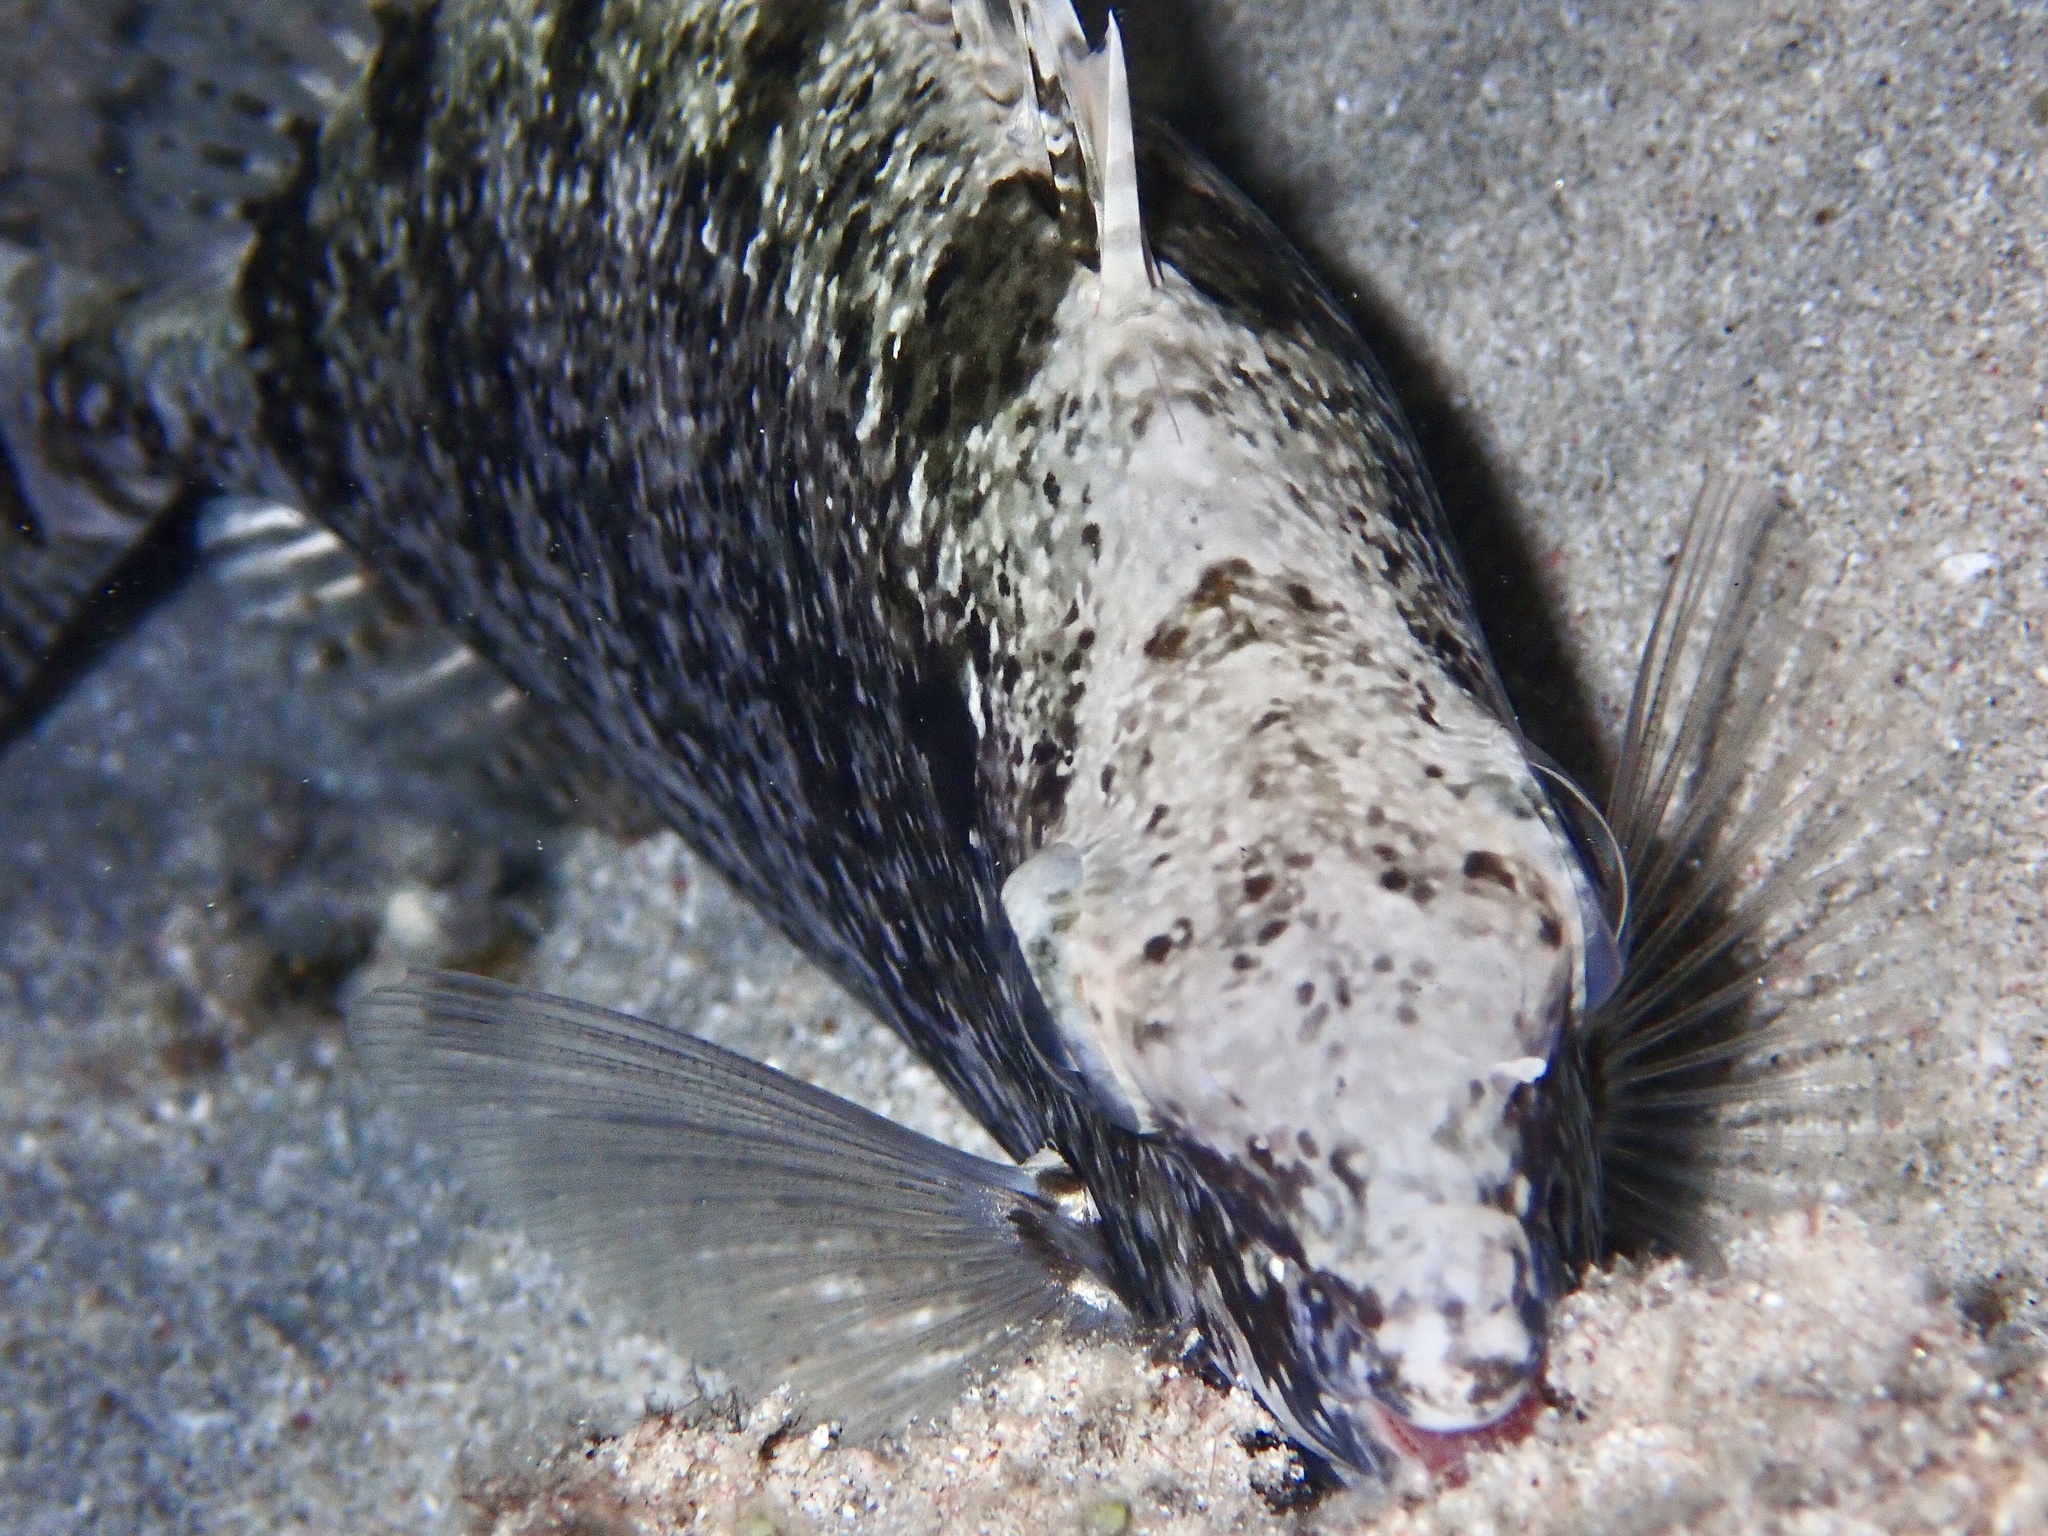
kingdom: Animalia
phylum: Chordata
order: Perciformes
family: Siganidae
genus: Siganus
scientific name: Siganus rivulatus
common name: Marbled spinefoot
